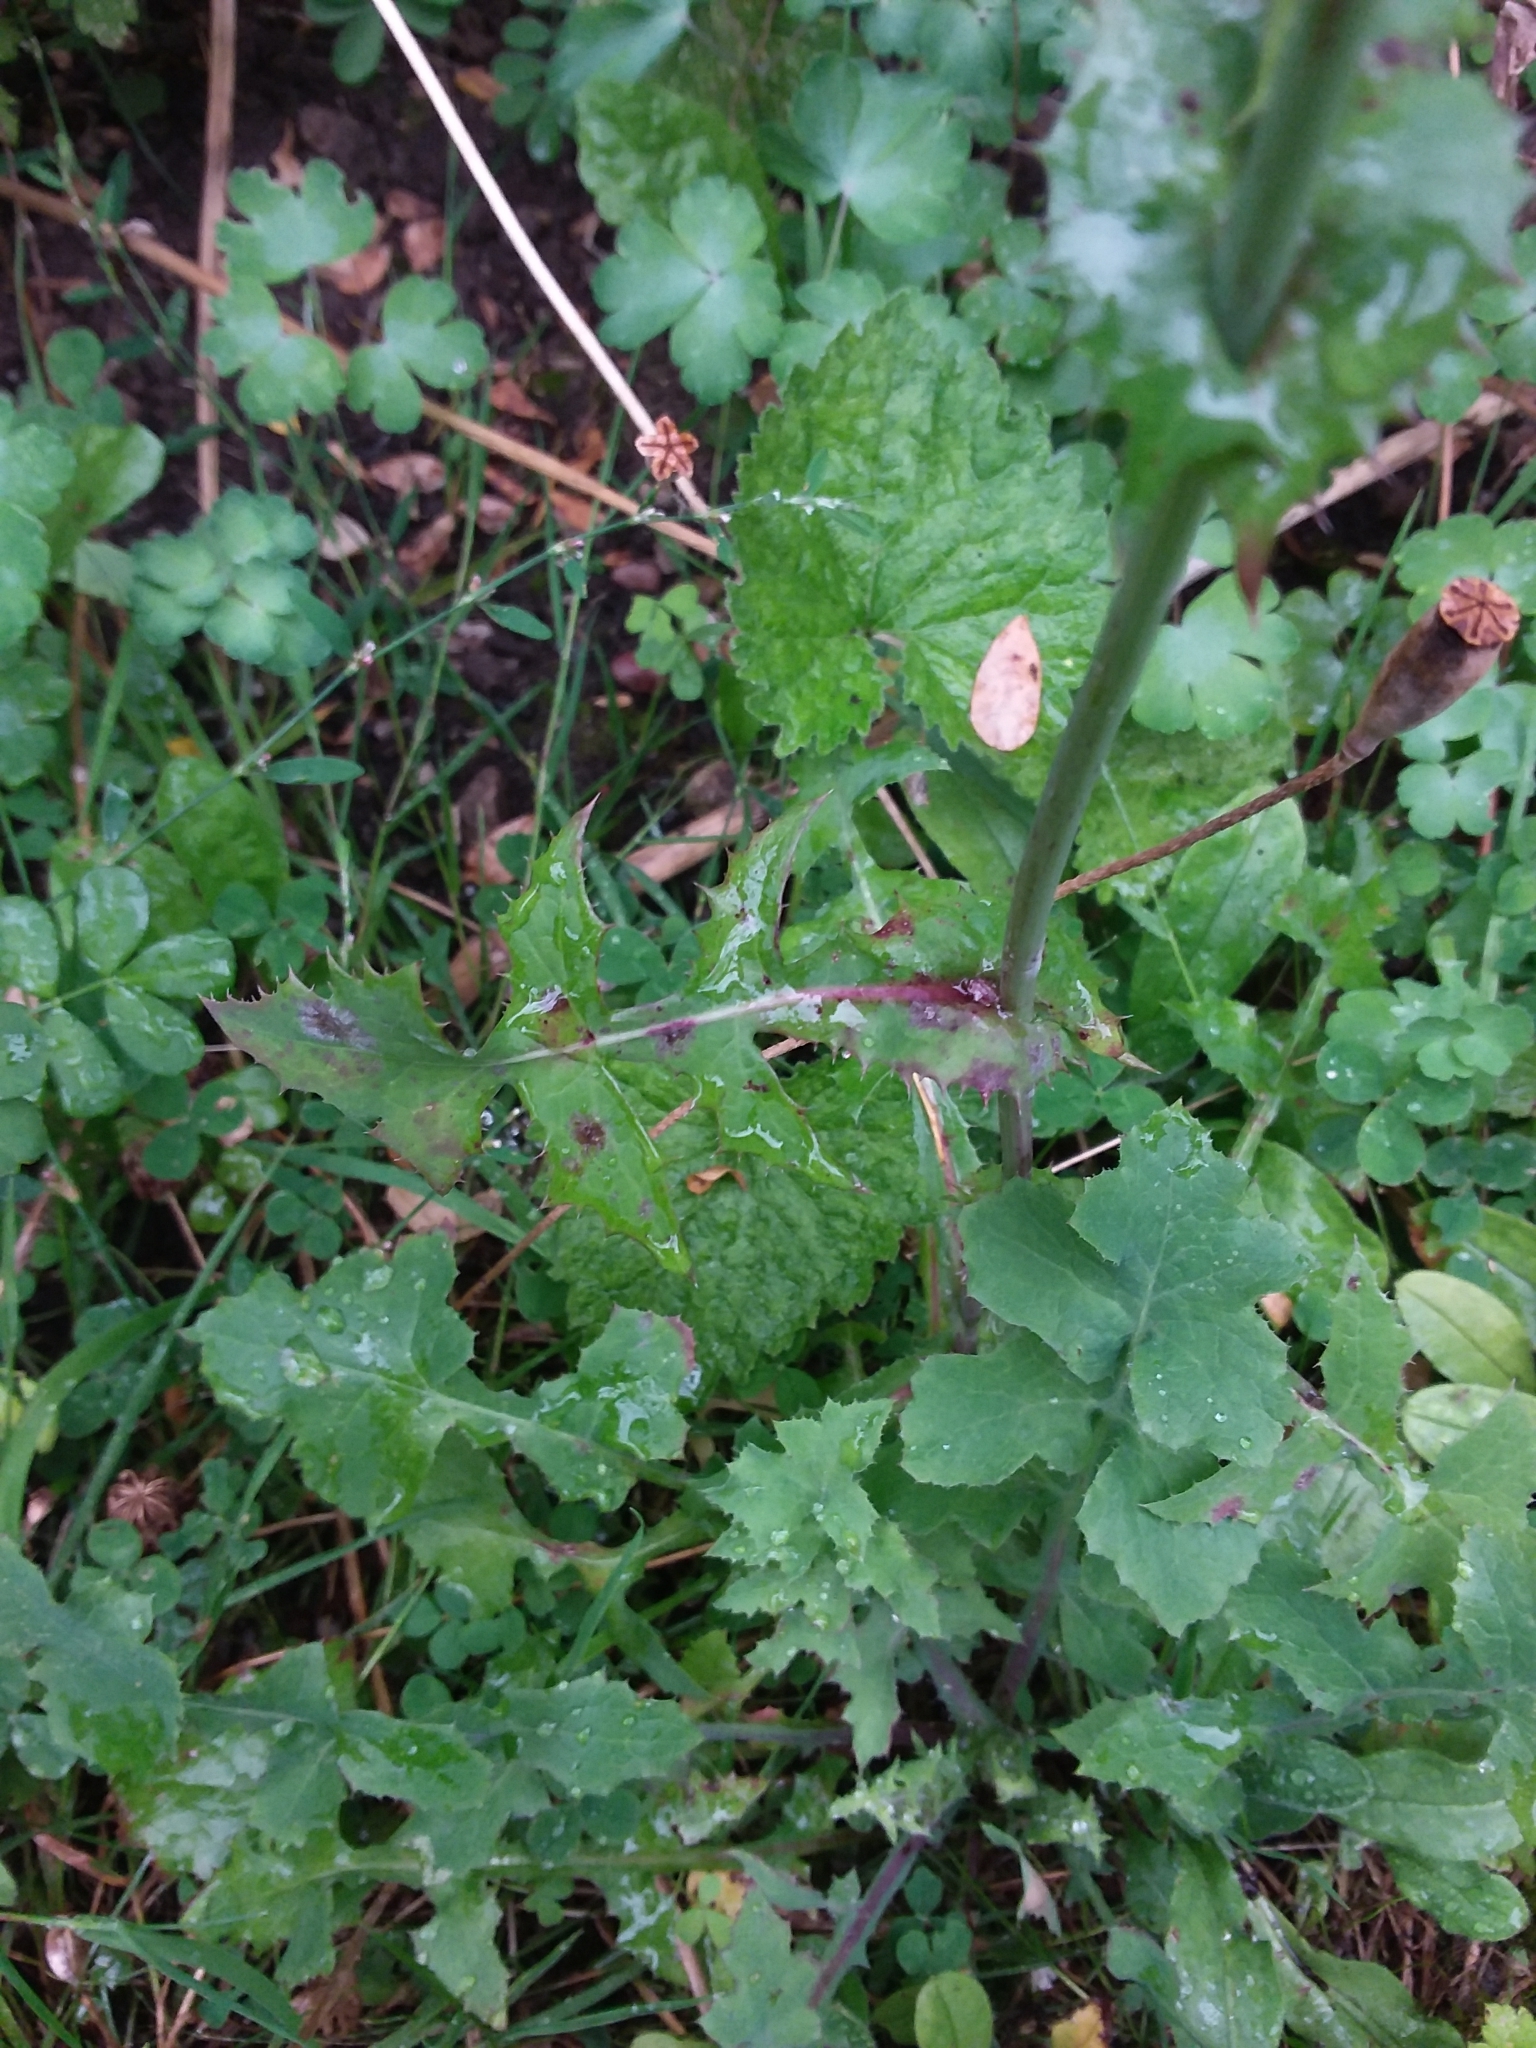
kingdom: Plantae
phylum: Tracheophyta
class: Magnoliopsida
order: Asterales
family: Asteraceae
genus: Sonchus
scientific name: Sonchus oleraceus
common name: Common sowthistle
